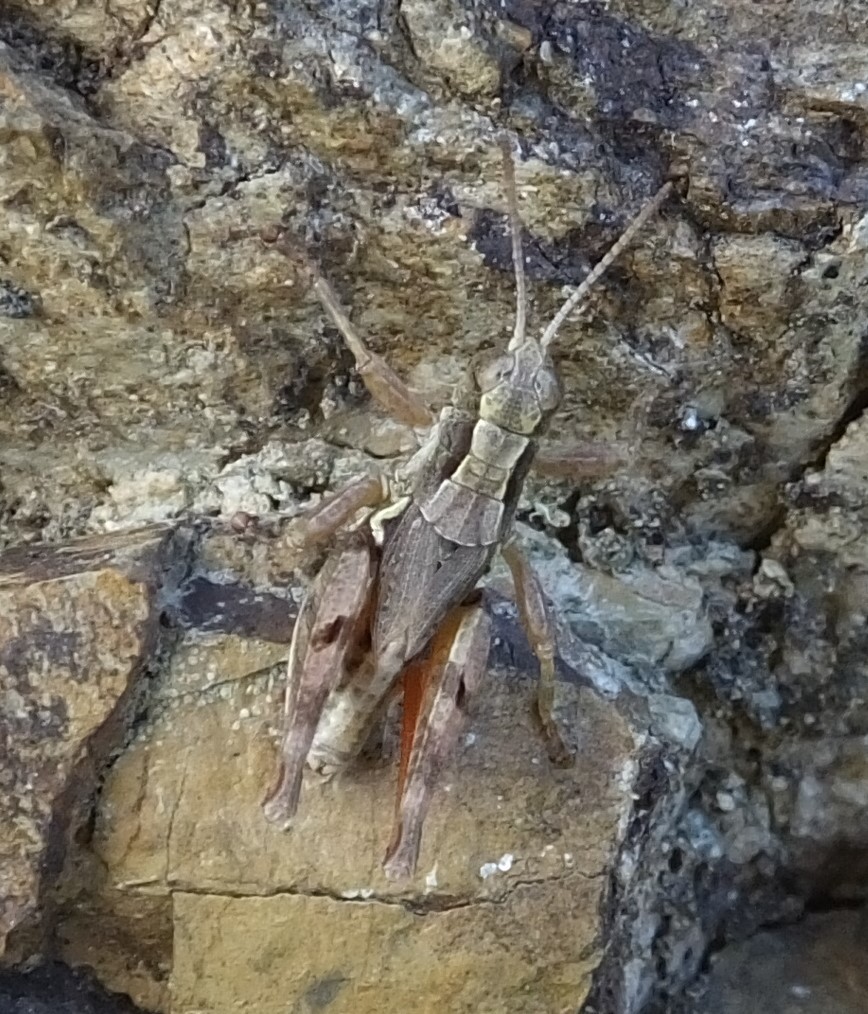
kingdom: Animalia
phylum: Arthropoda
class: Insecta
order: Orthoptera
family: Acrididae
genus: Phaulacridium
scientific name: Phaulacridium marginale
